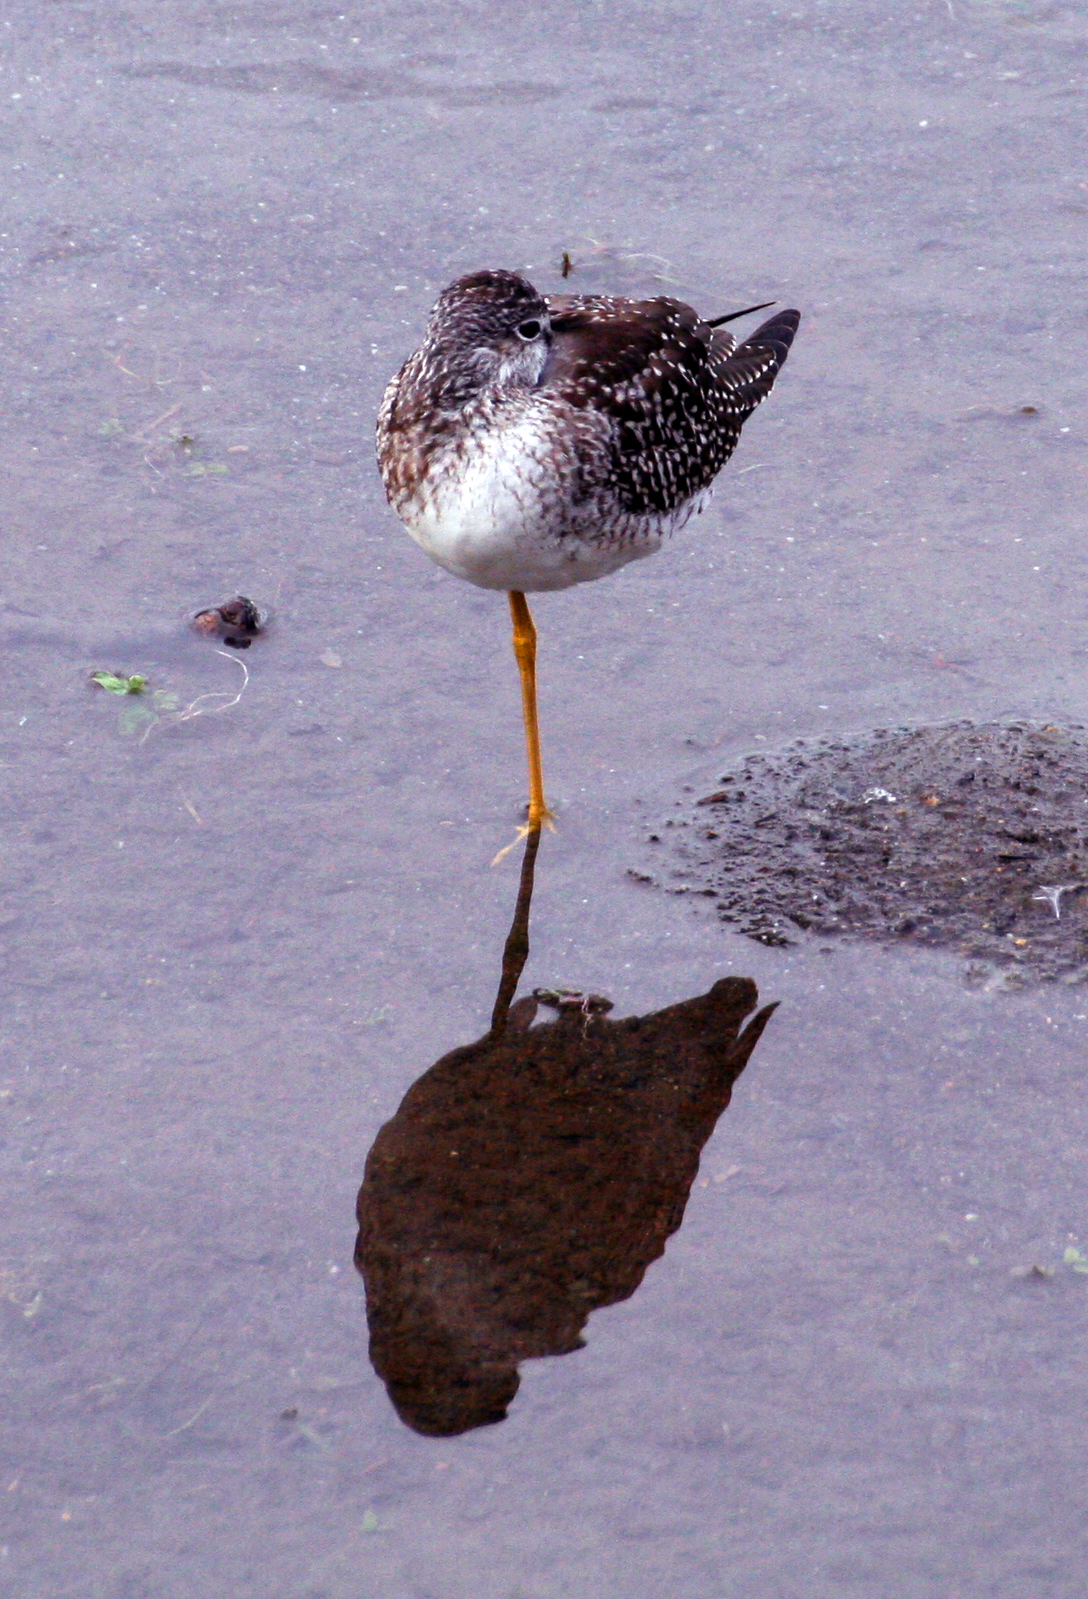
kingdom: Animalia
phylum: Chordata
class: Aves
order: Charadriiformes
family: Scolopacidae
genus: Tringa
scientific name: Tringa melanoleuca
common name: Greater yellowlegs
